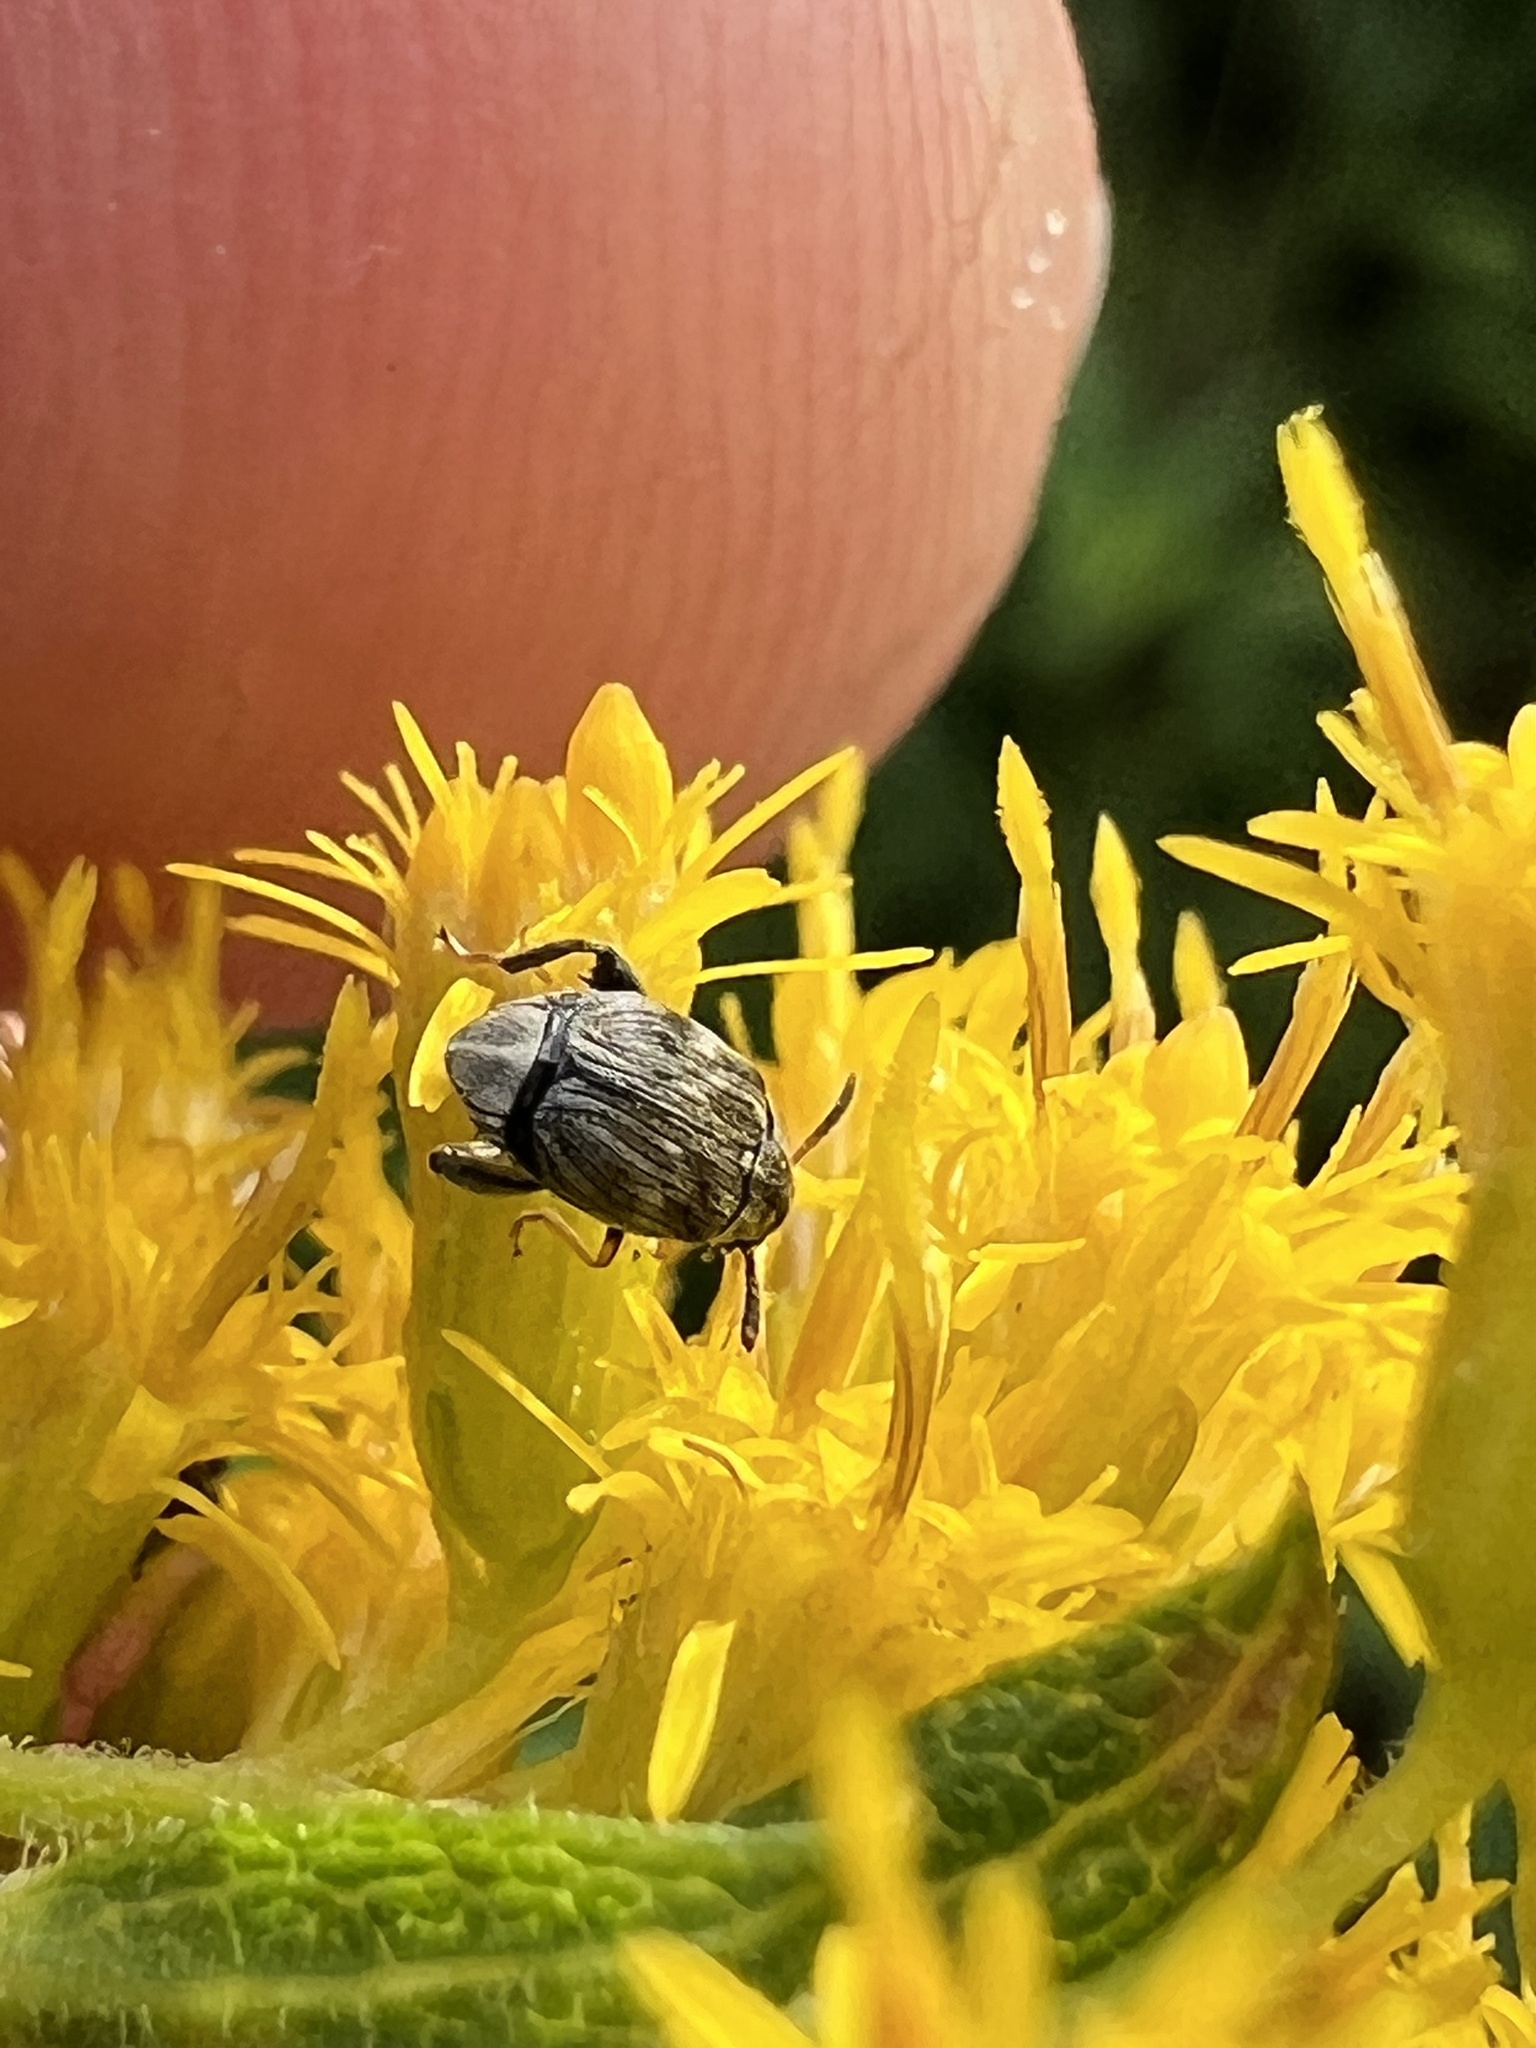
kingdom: Animalia
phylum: Arthropoda
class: Insecta
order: Coleoptera
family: Chrysomelidae
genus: Meibomeus
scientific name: Meibomeus musculus
